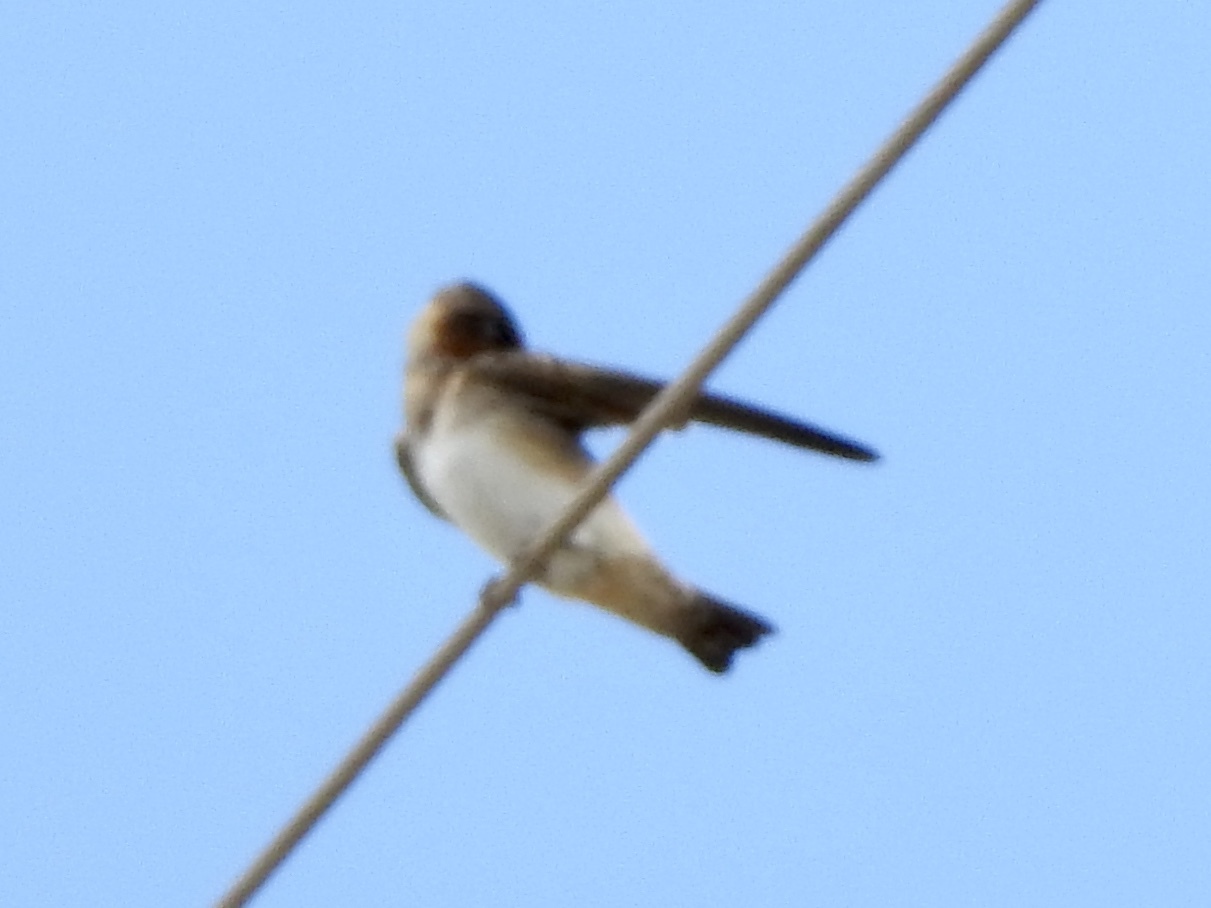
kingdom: Animalia
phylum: Chordata
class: Aves
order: Passeriformes
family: Hirundinidae
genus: Petrochelidon
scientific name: Petrochelidon fulva
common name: Cave swallow
